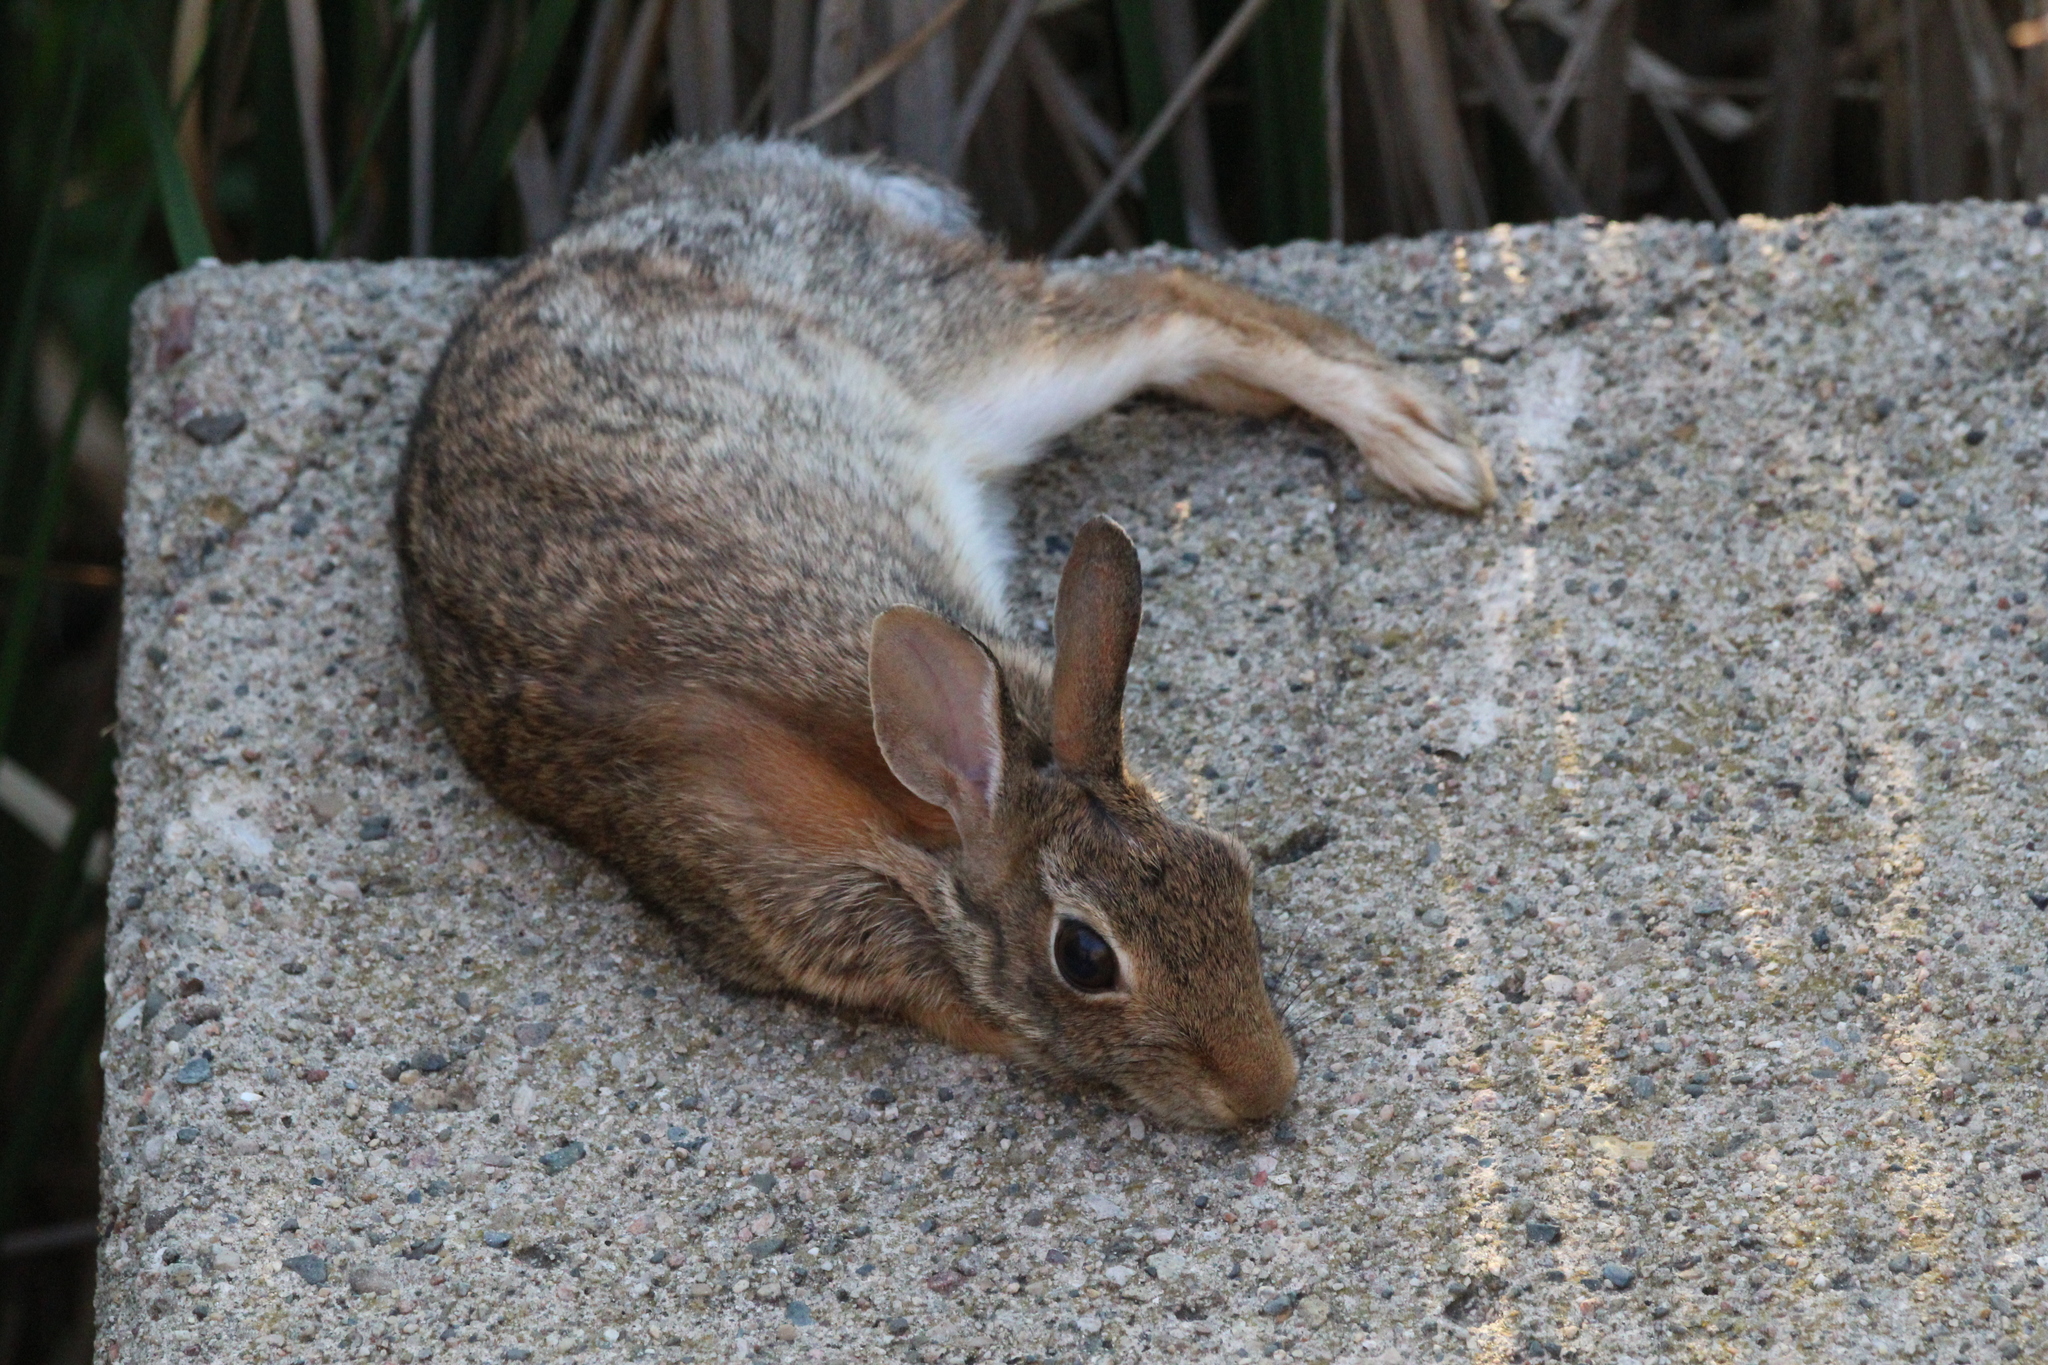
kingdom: Animalia
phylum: Chordata
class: Mammalia
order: Lagomorpha
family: Leporidae
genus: Sylvilagus
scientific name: Sylvilagus floridanus
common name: Eastern cottontail
